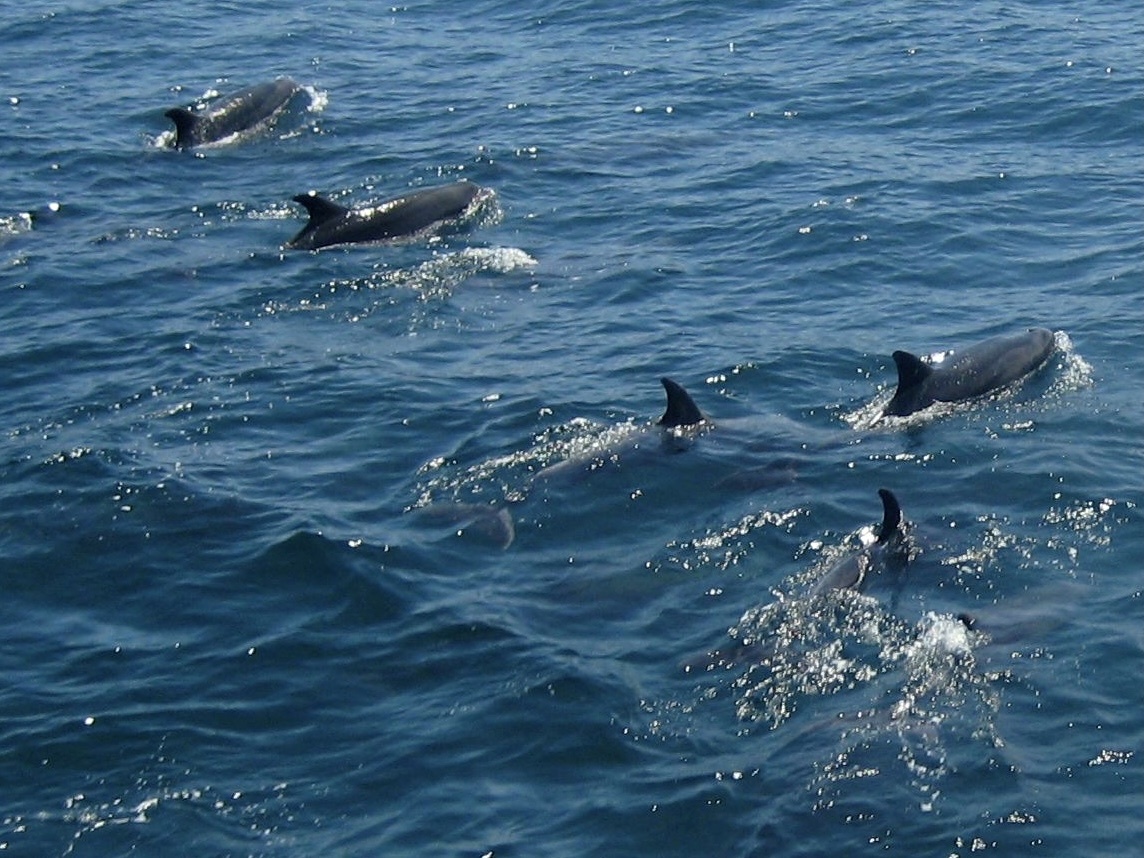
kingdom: Animalia
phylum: Chordata
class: Mammalia
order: Cetacea
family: Delphinidae
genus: Tursiops
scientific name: Tursiops truncatus
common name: Bottlenose dolphin
